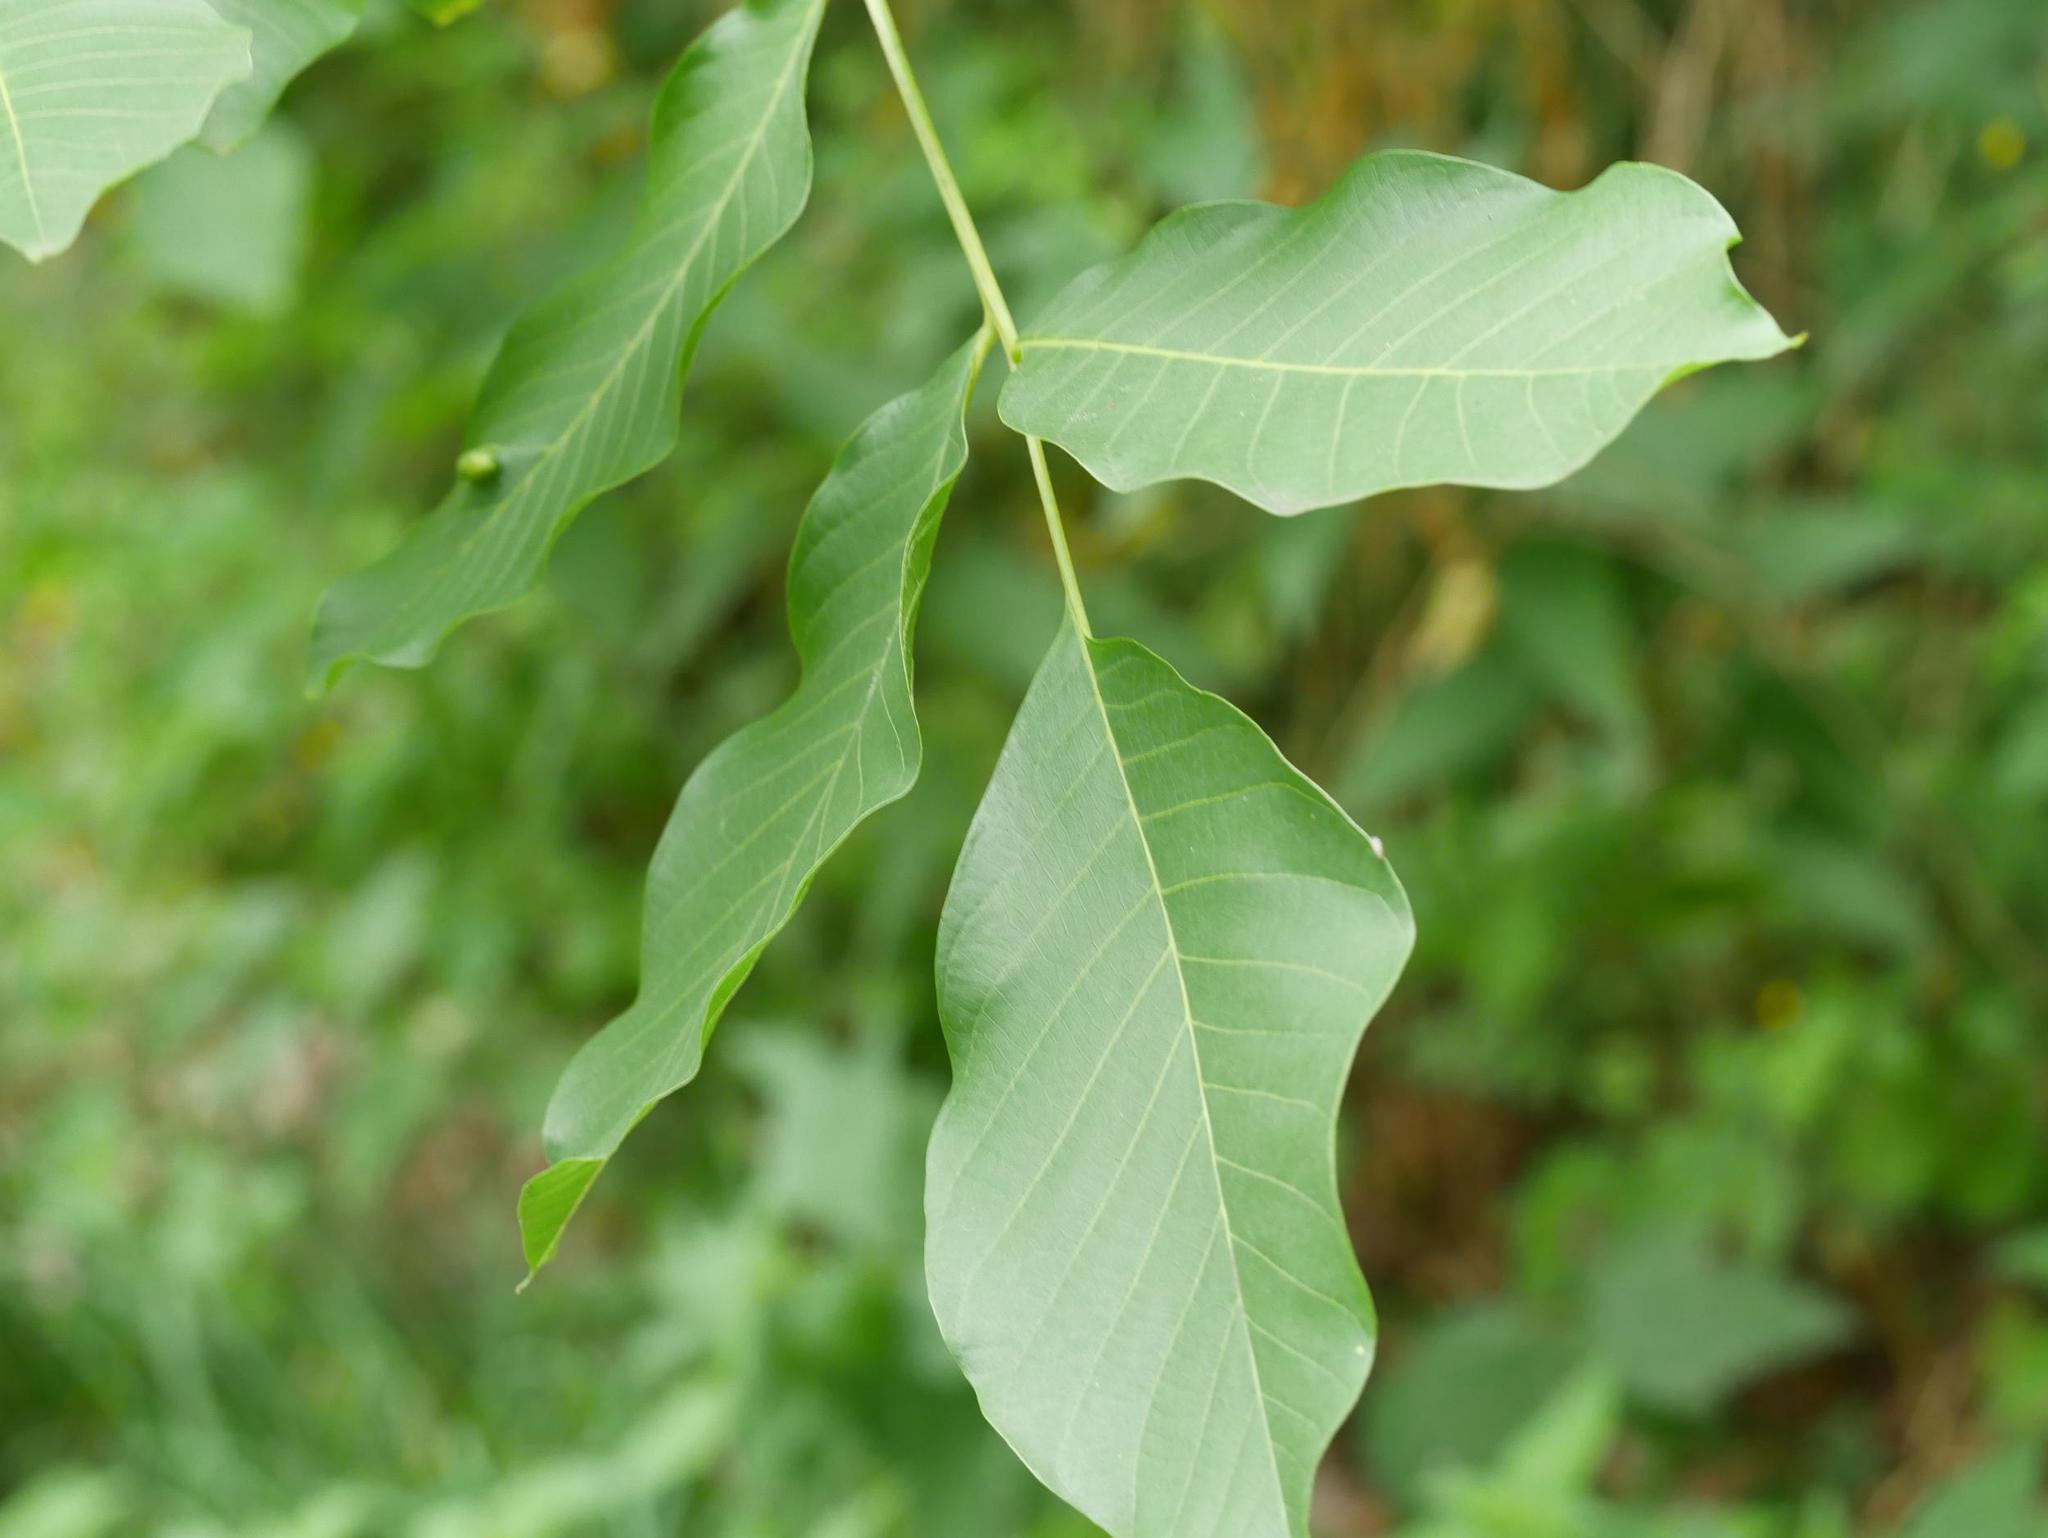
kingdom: Plantae
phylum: Tracheophyta
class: Magnoliopsida
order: Fagales
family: Juglandaceae
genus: Juglans
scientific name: Juglans regia
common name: Walnut
